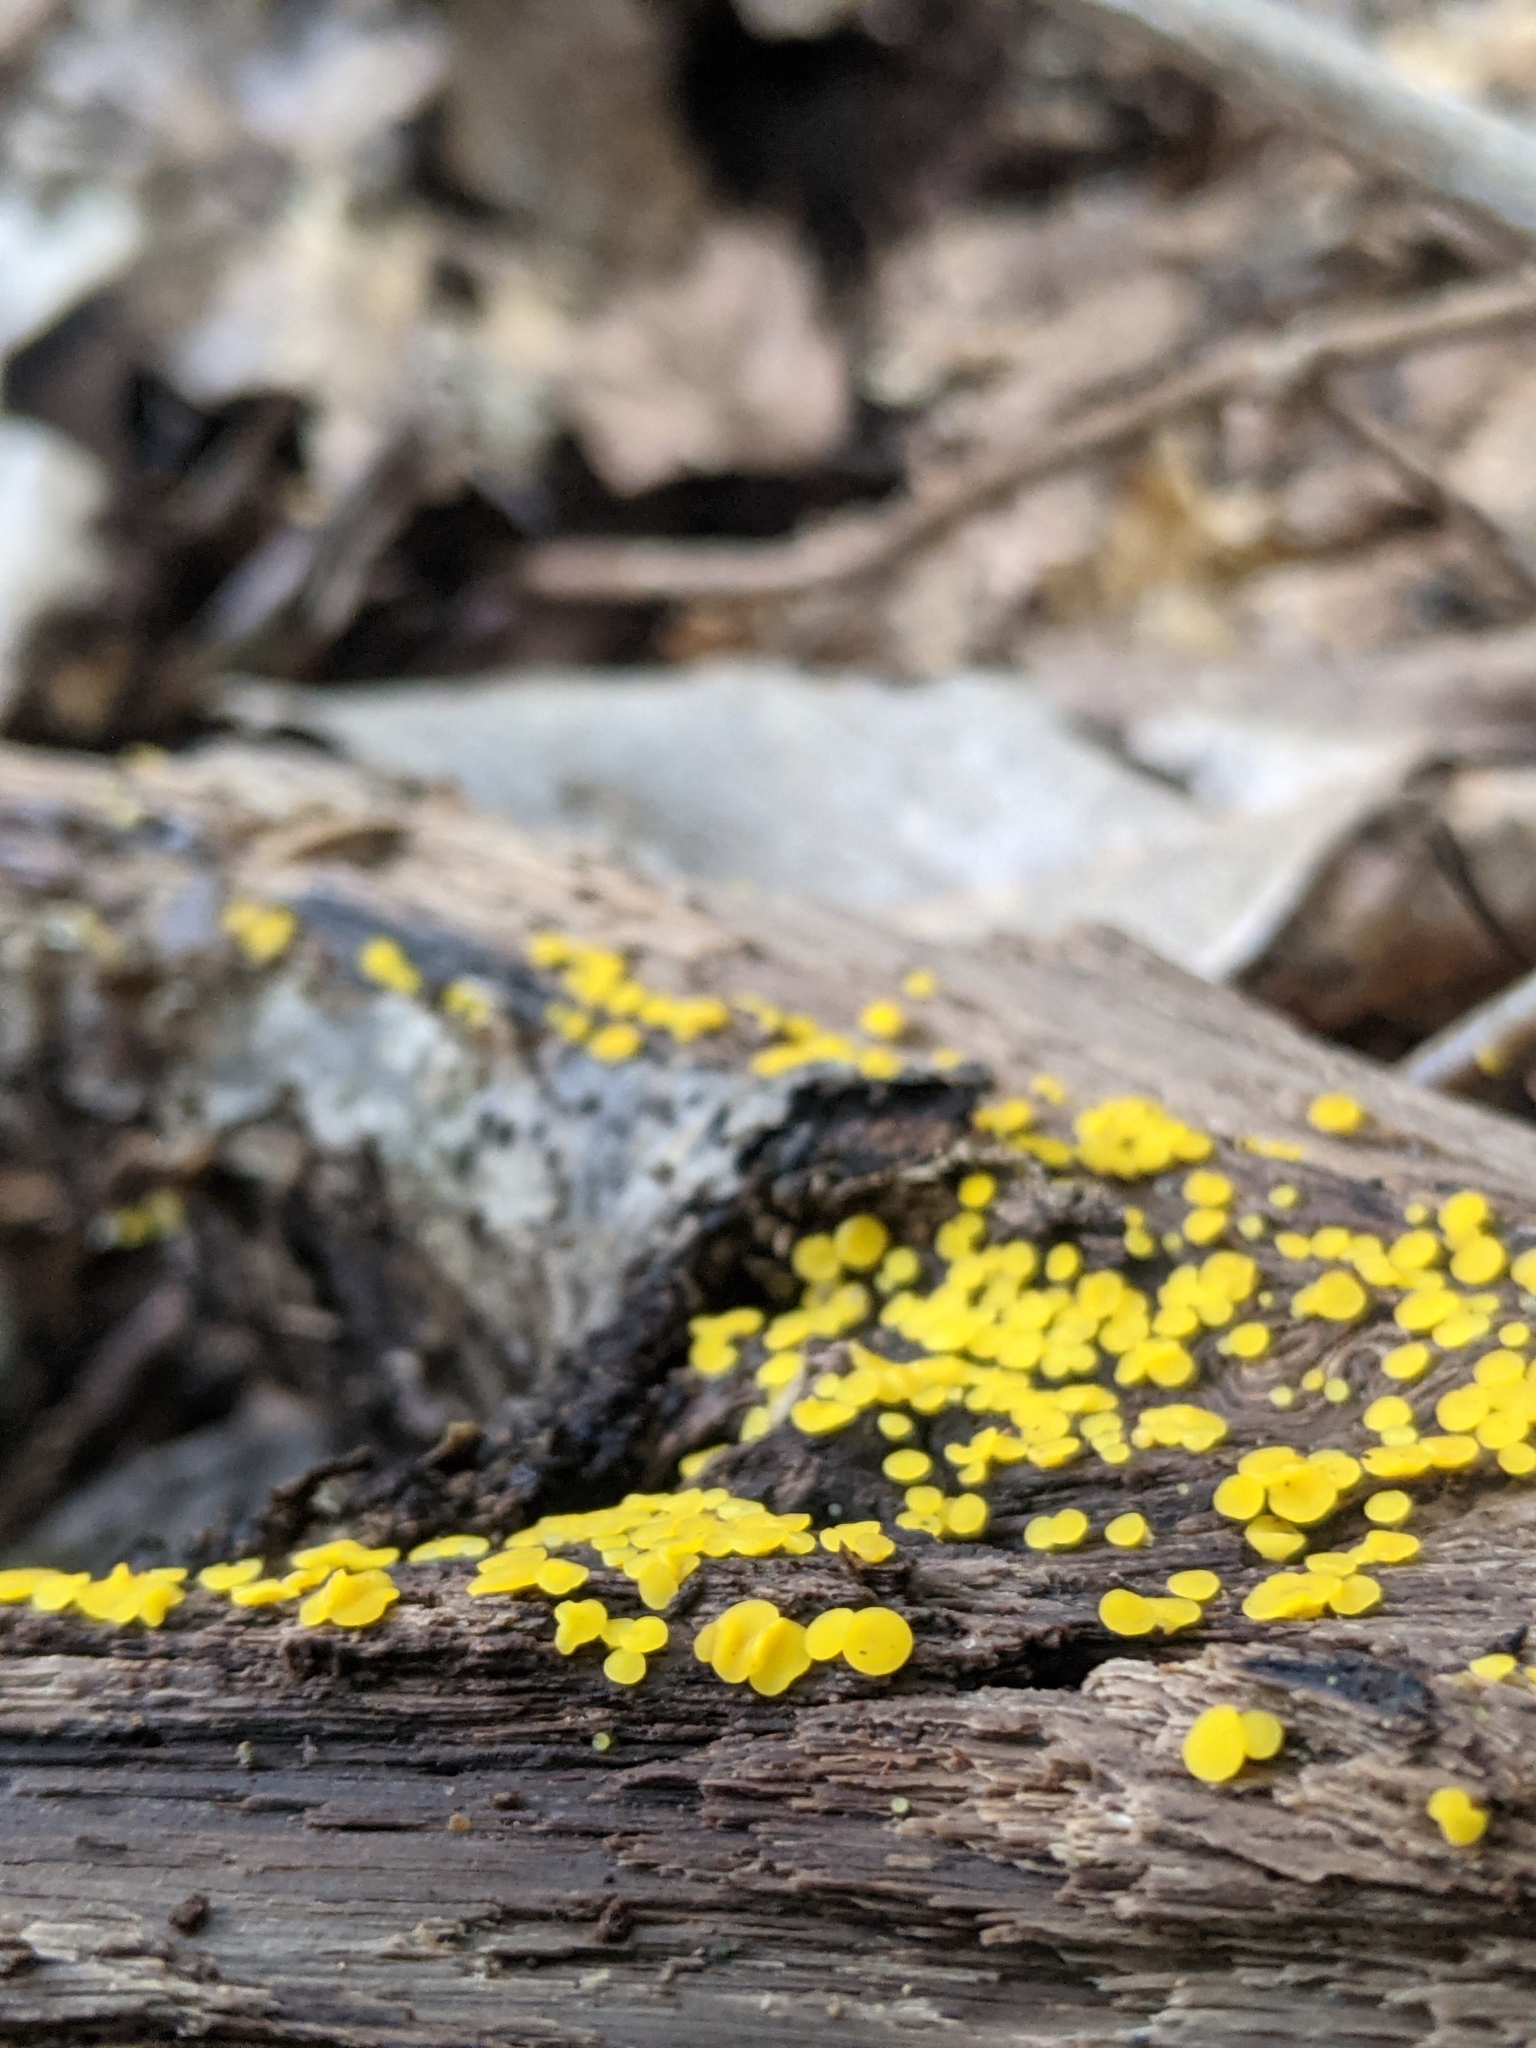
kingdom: Fungi
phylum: Ascomycota
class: Leotiomycetes
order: Helotiales
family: Pezizellaceae
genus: Calycina
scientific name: Calycina citrina
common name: Yellow fairy cups
